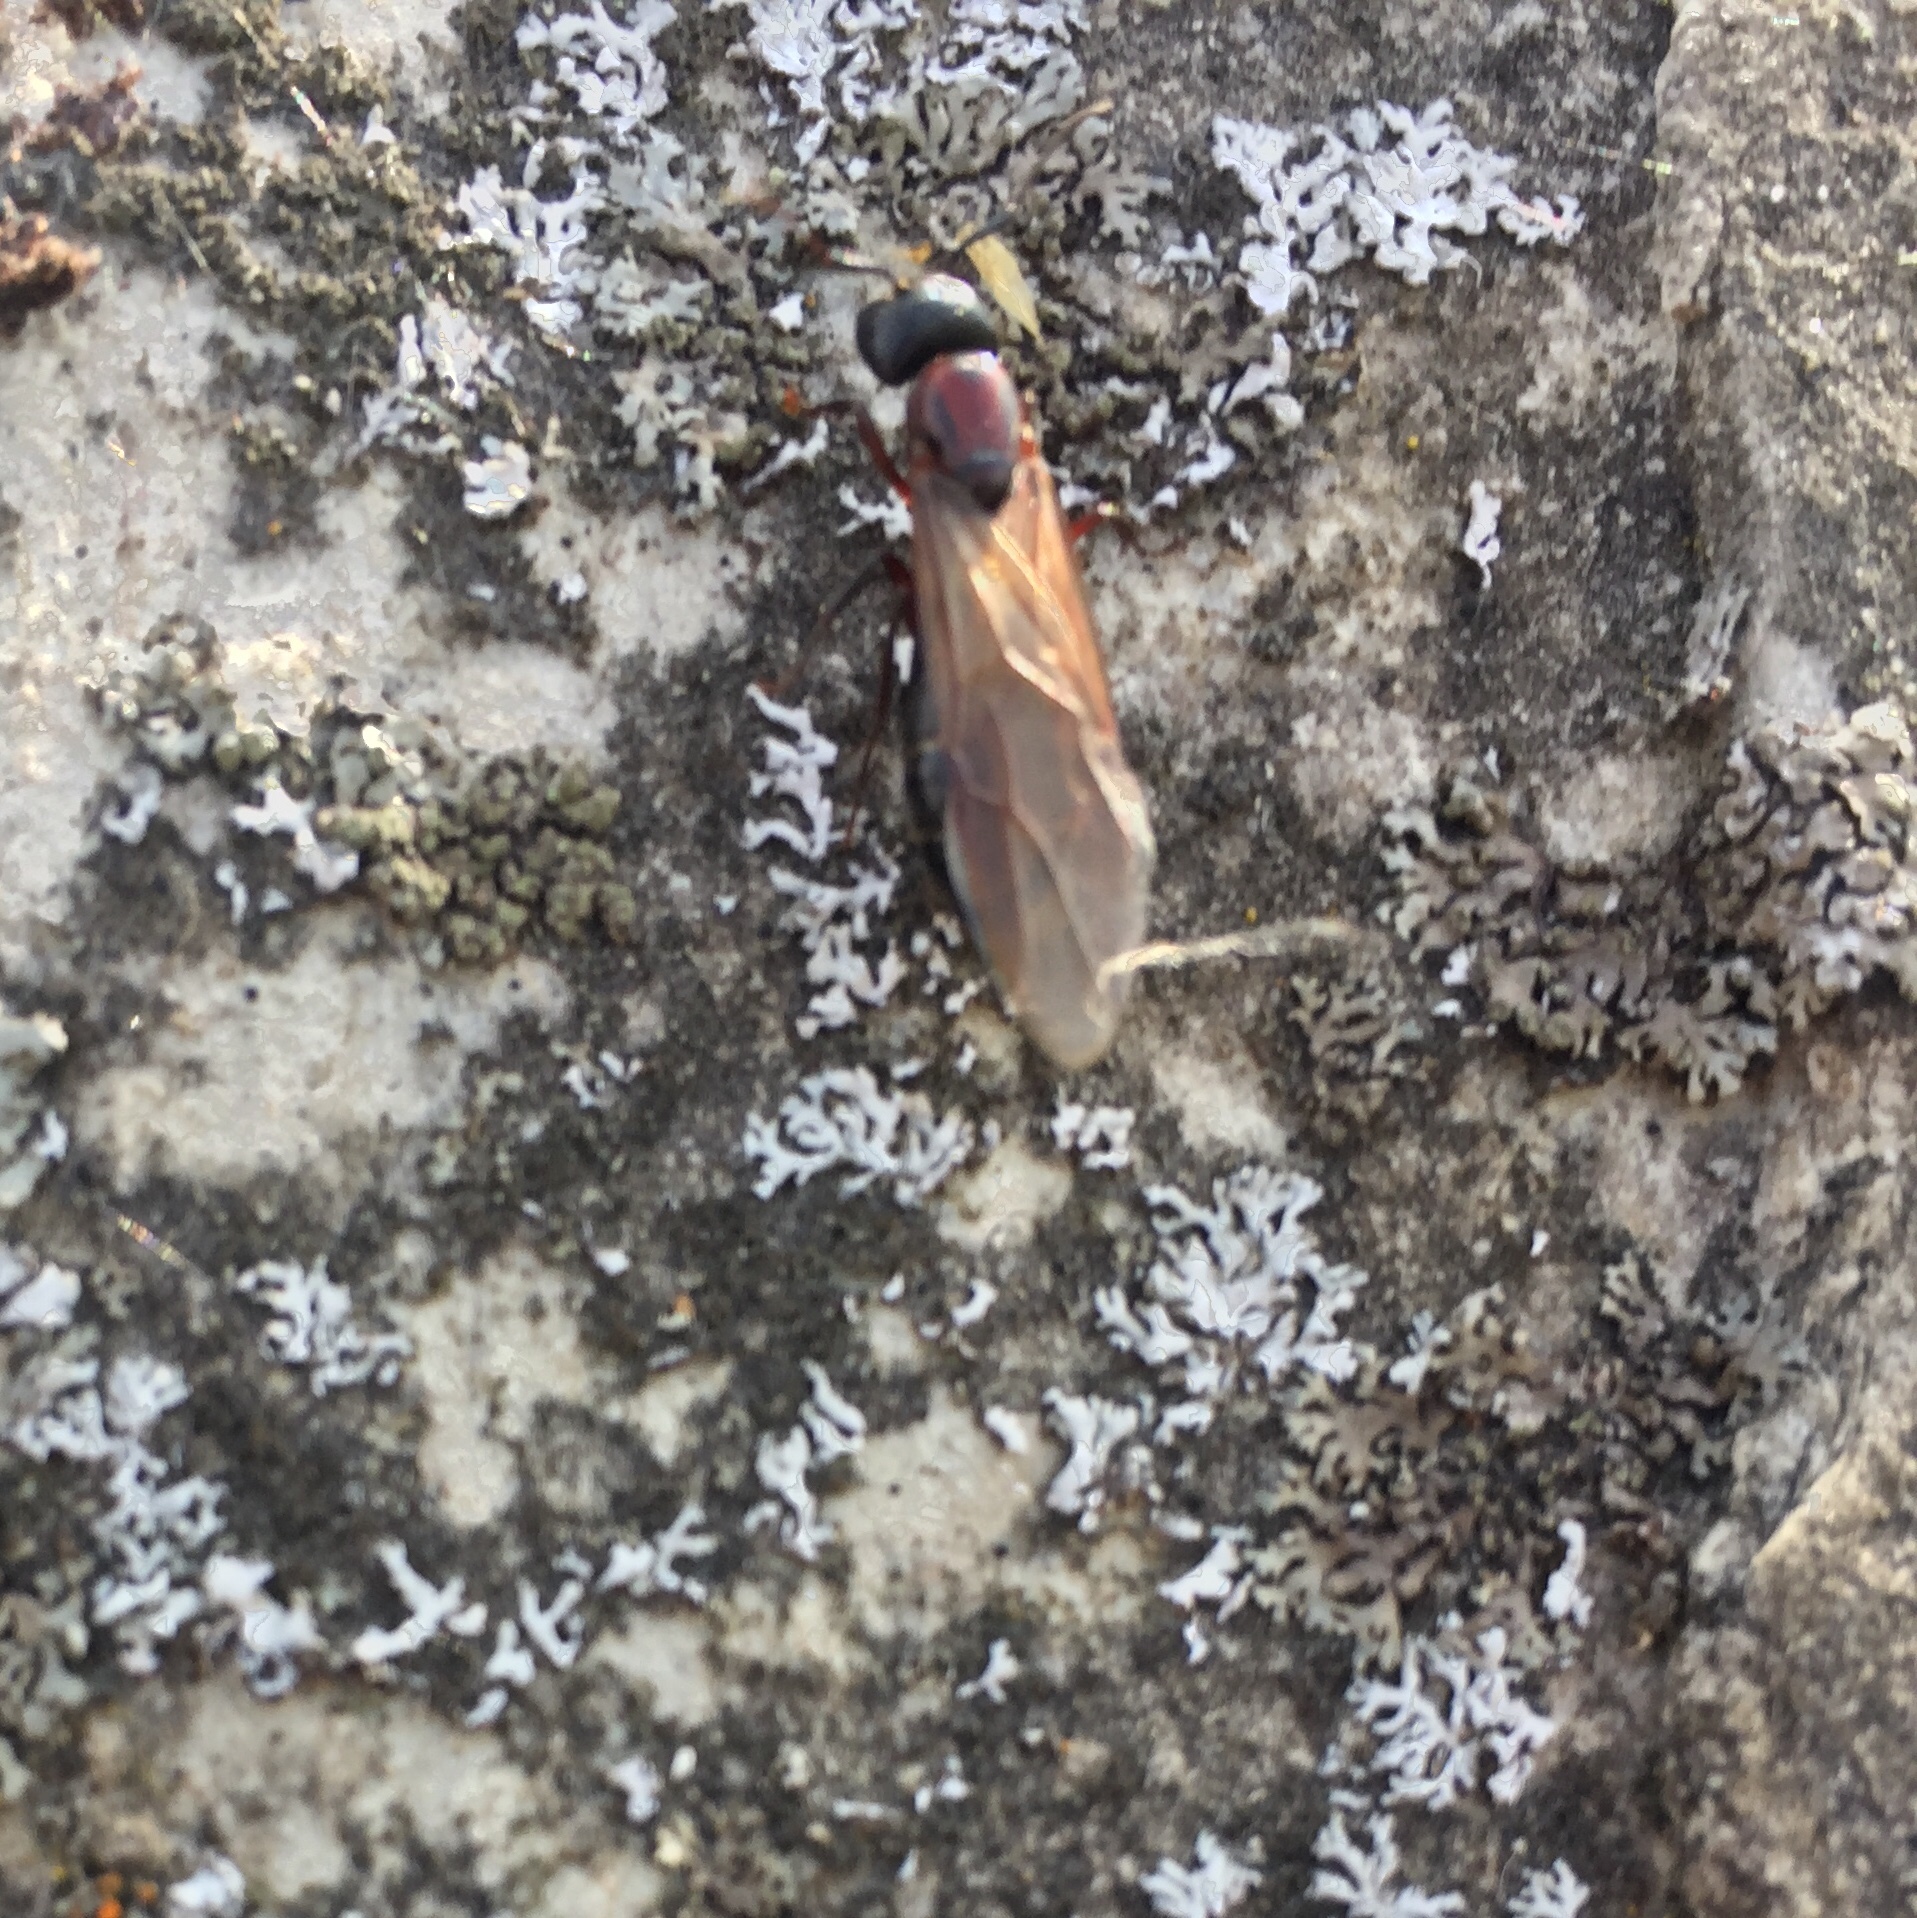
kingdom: Animalia
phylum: Arthropoda
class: Insecta
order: Hymenoptera
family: Formicidae
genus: Camponotus
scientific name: Camponotus novaeboracensis
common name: New york carpenter ant
